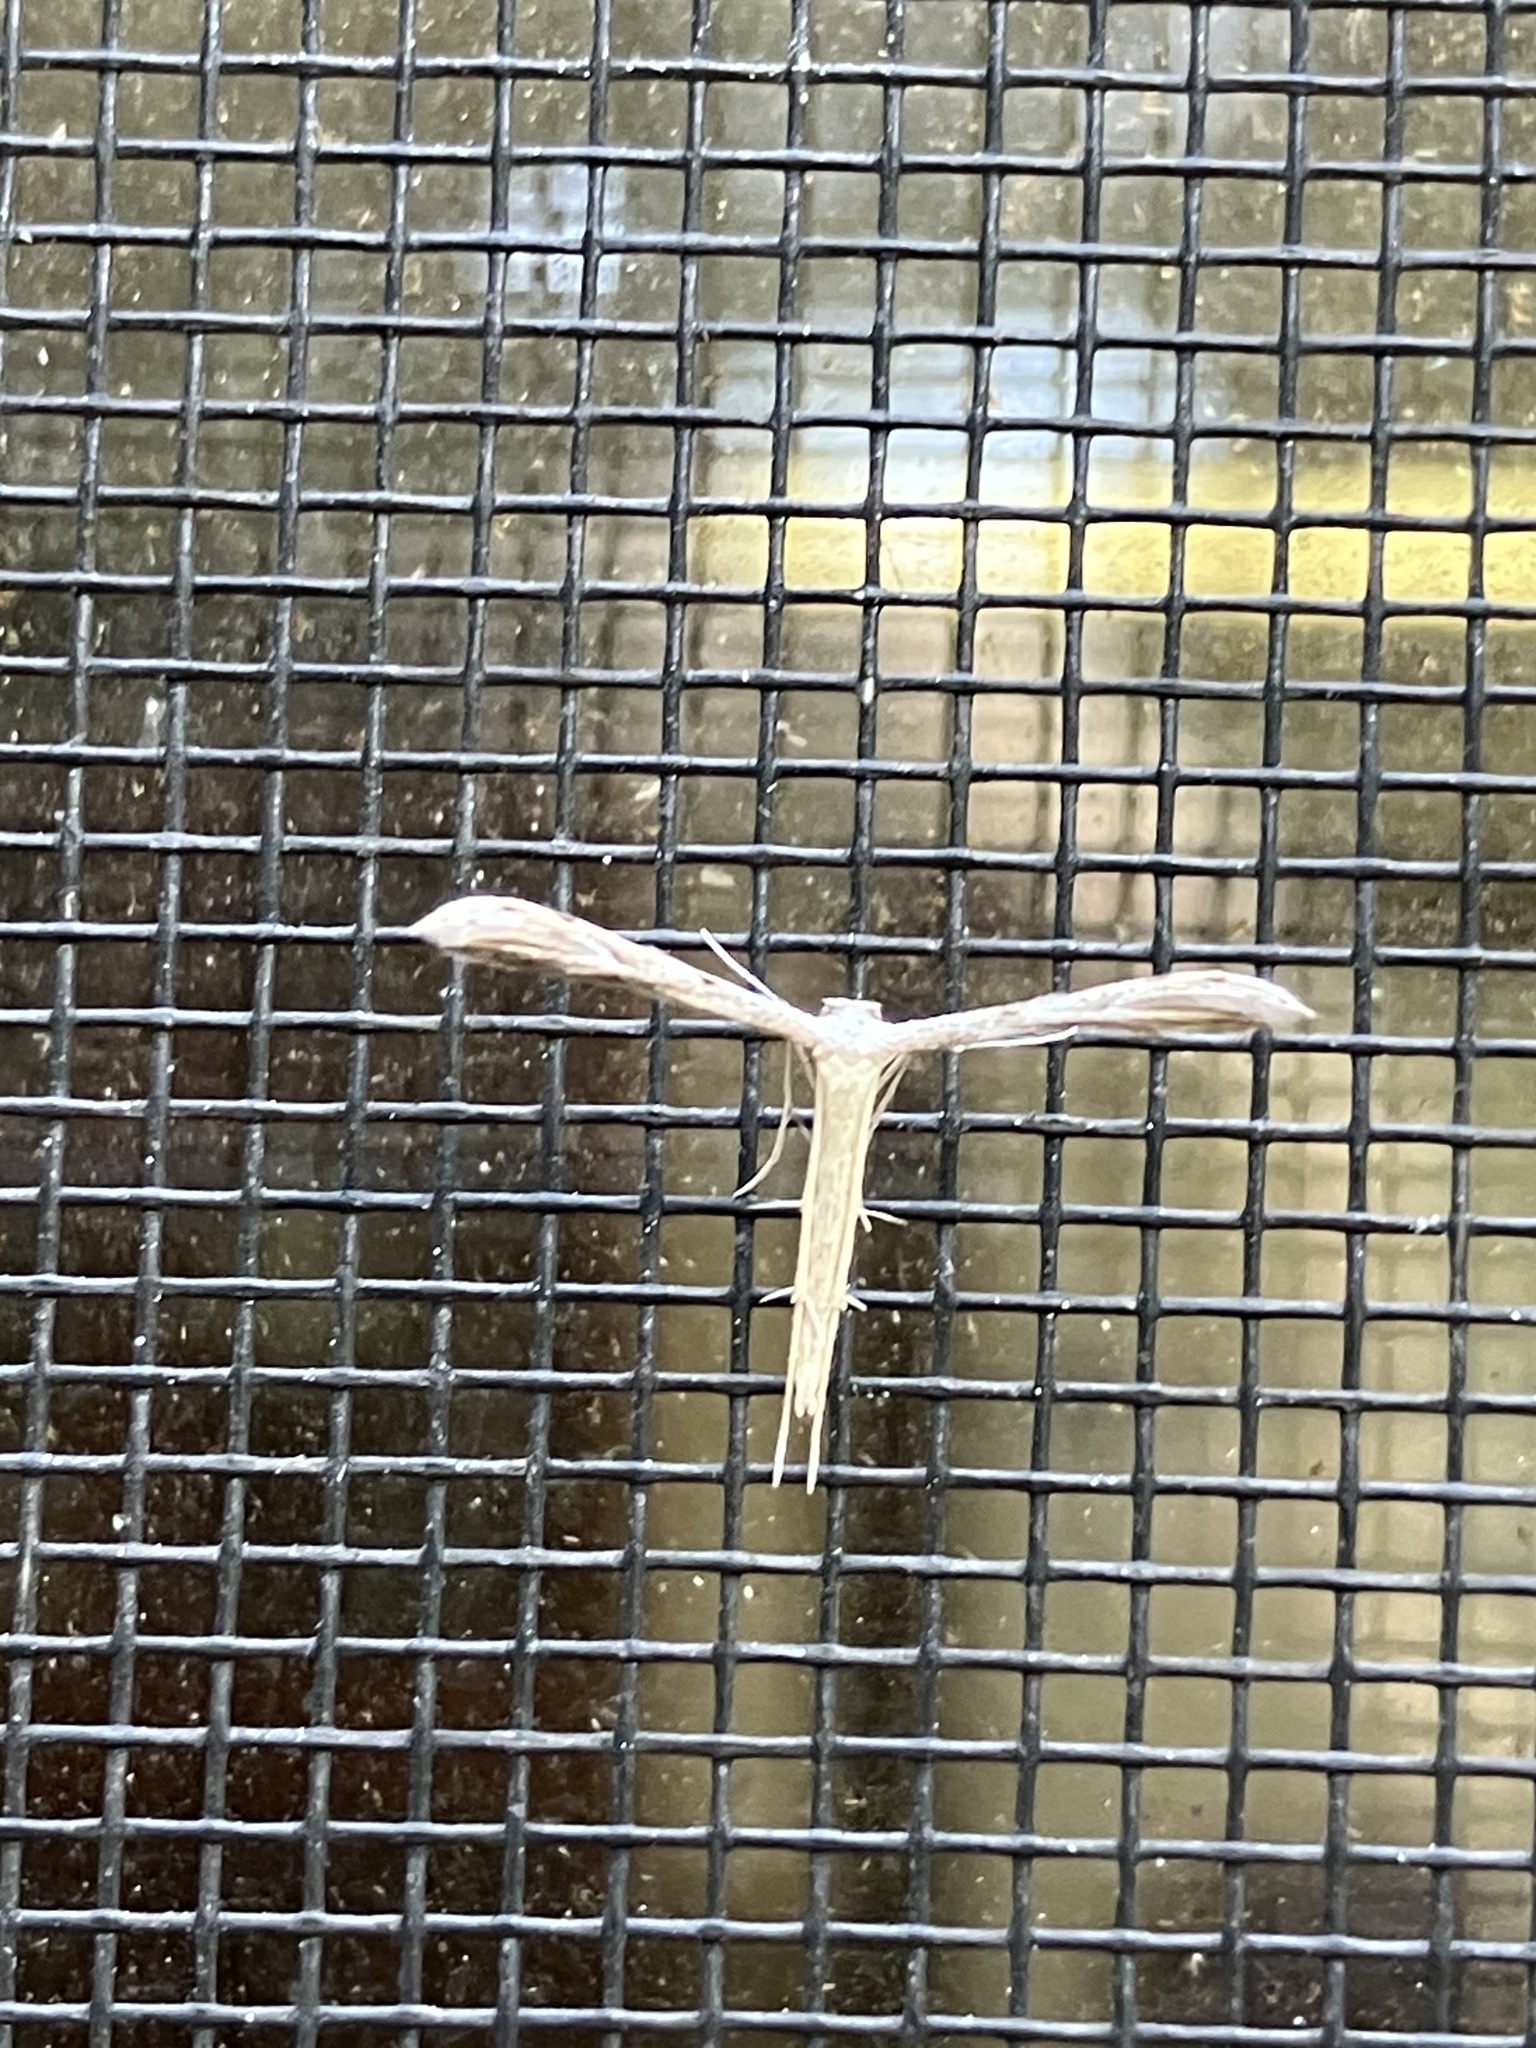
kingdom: Animalia
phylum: Arthropoda
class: Insecta
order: Lepidoptera
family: Pterophoridae
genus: Pselnophorus
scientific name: Pselnophorus belfragei
